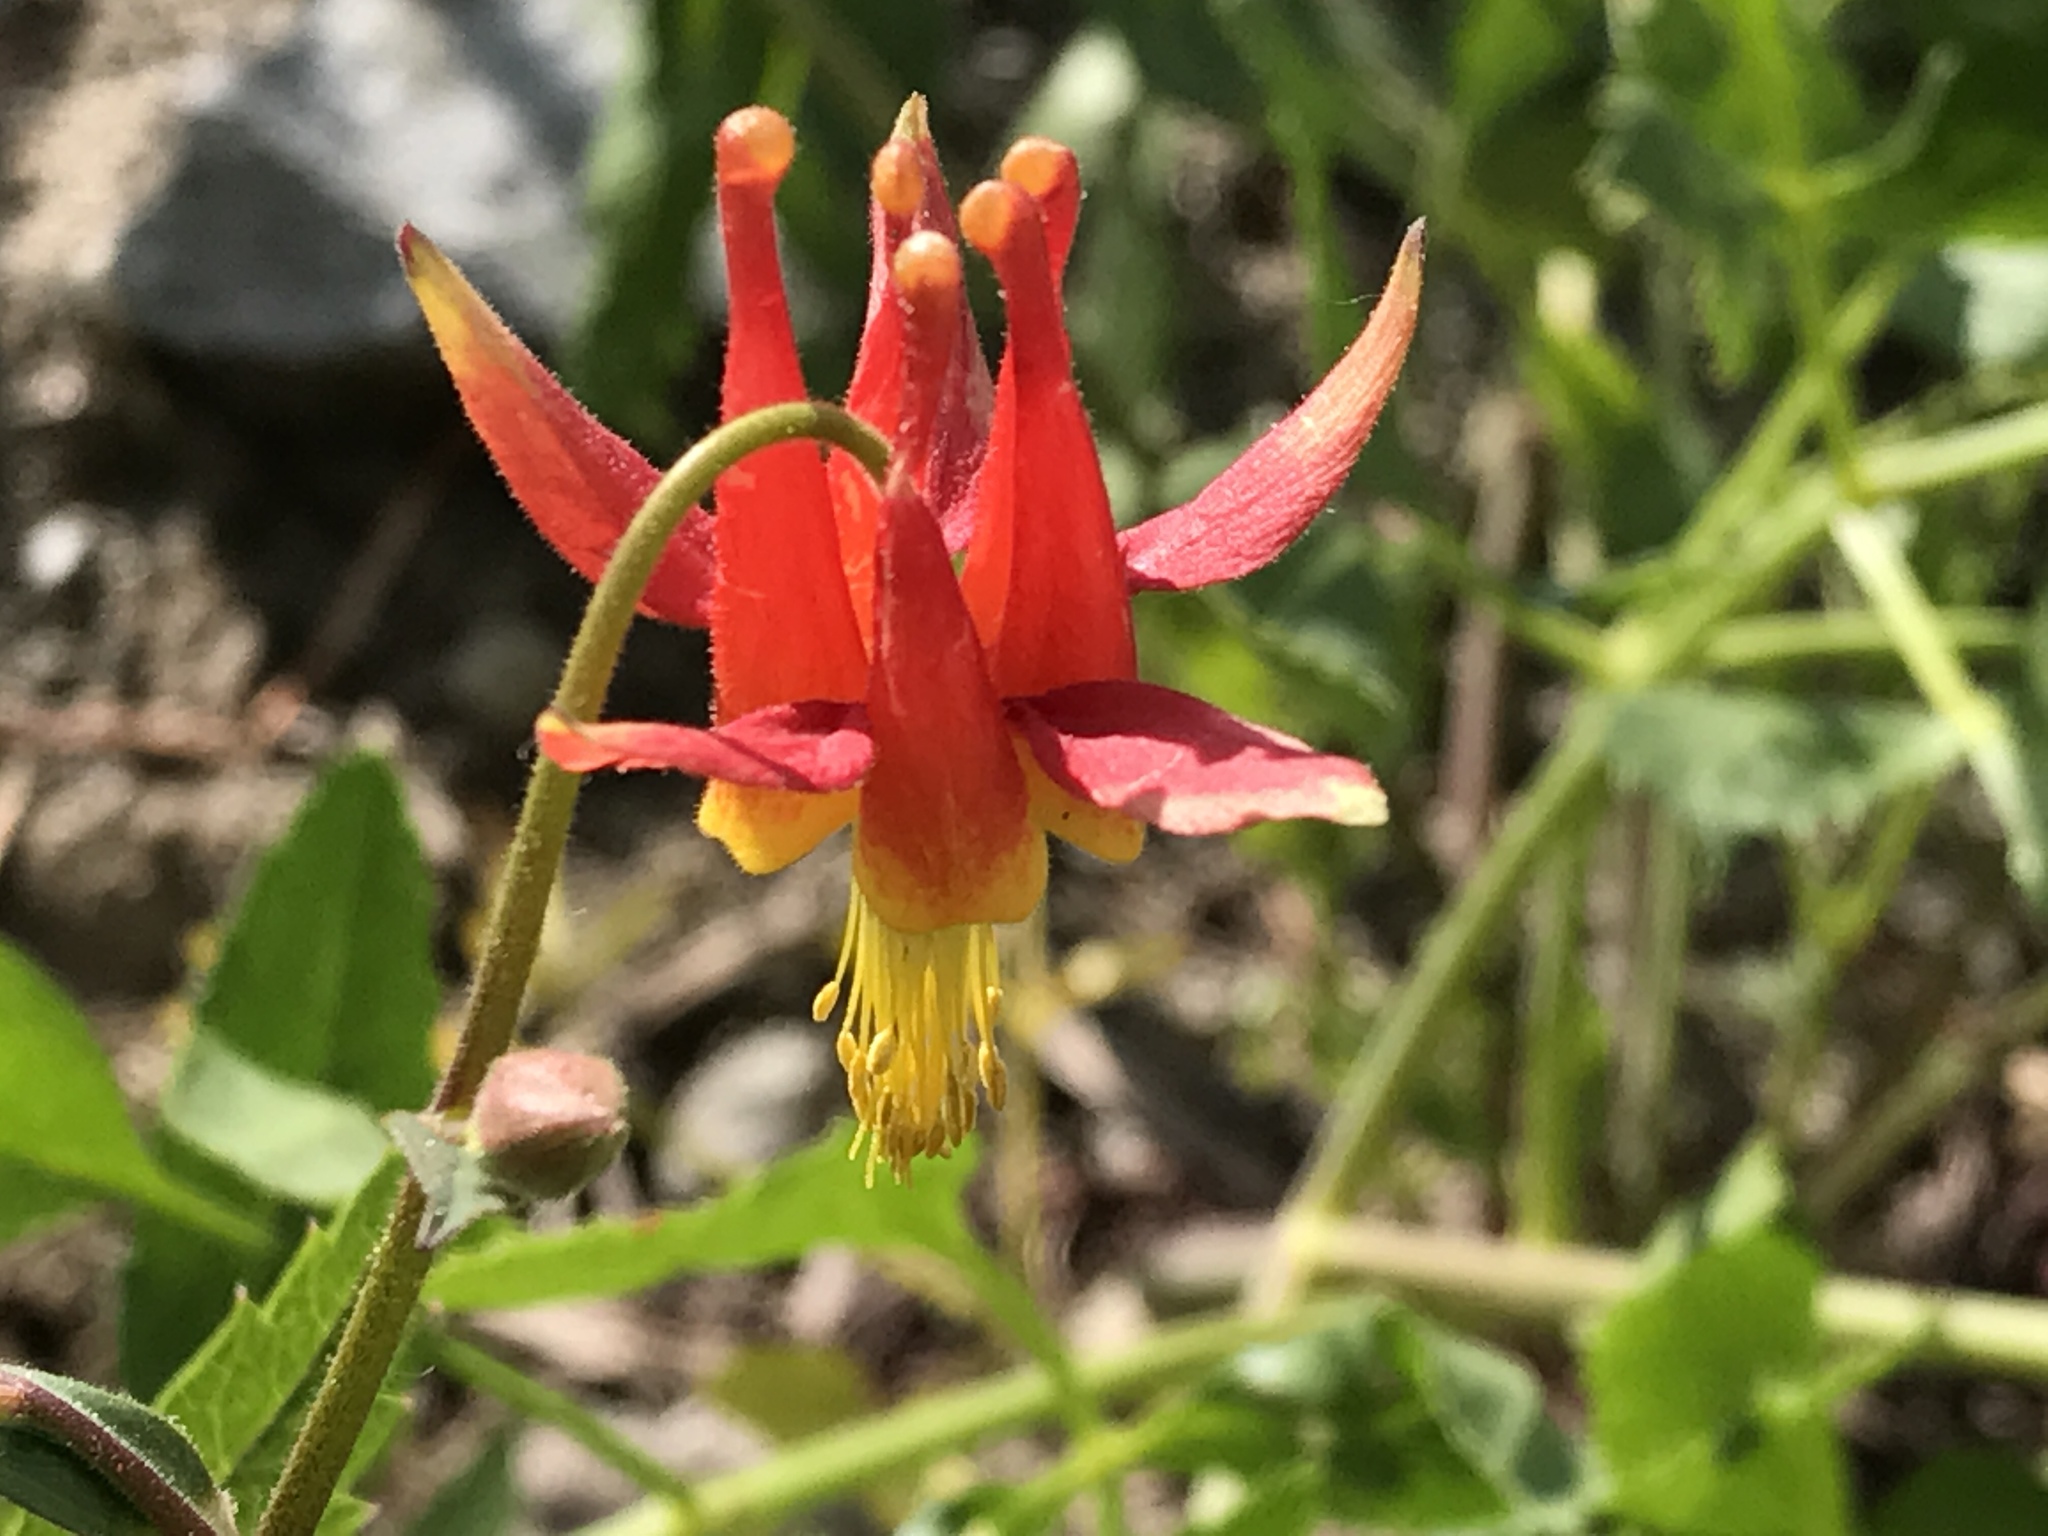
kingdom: Plantae
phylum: Tracheophyta
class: Magnoliopsida
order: Ranunculales
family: Ranunculaceae
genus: Aquilegia
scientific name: Aquilegia formosa
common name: Sitka columbine
